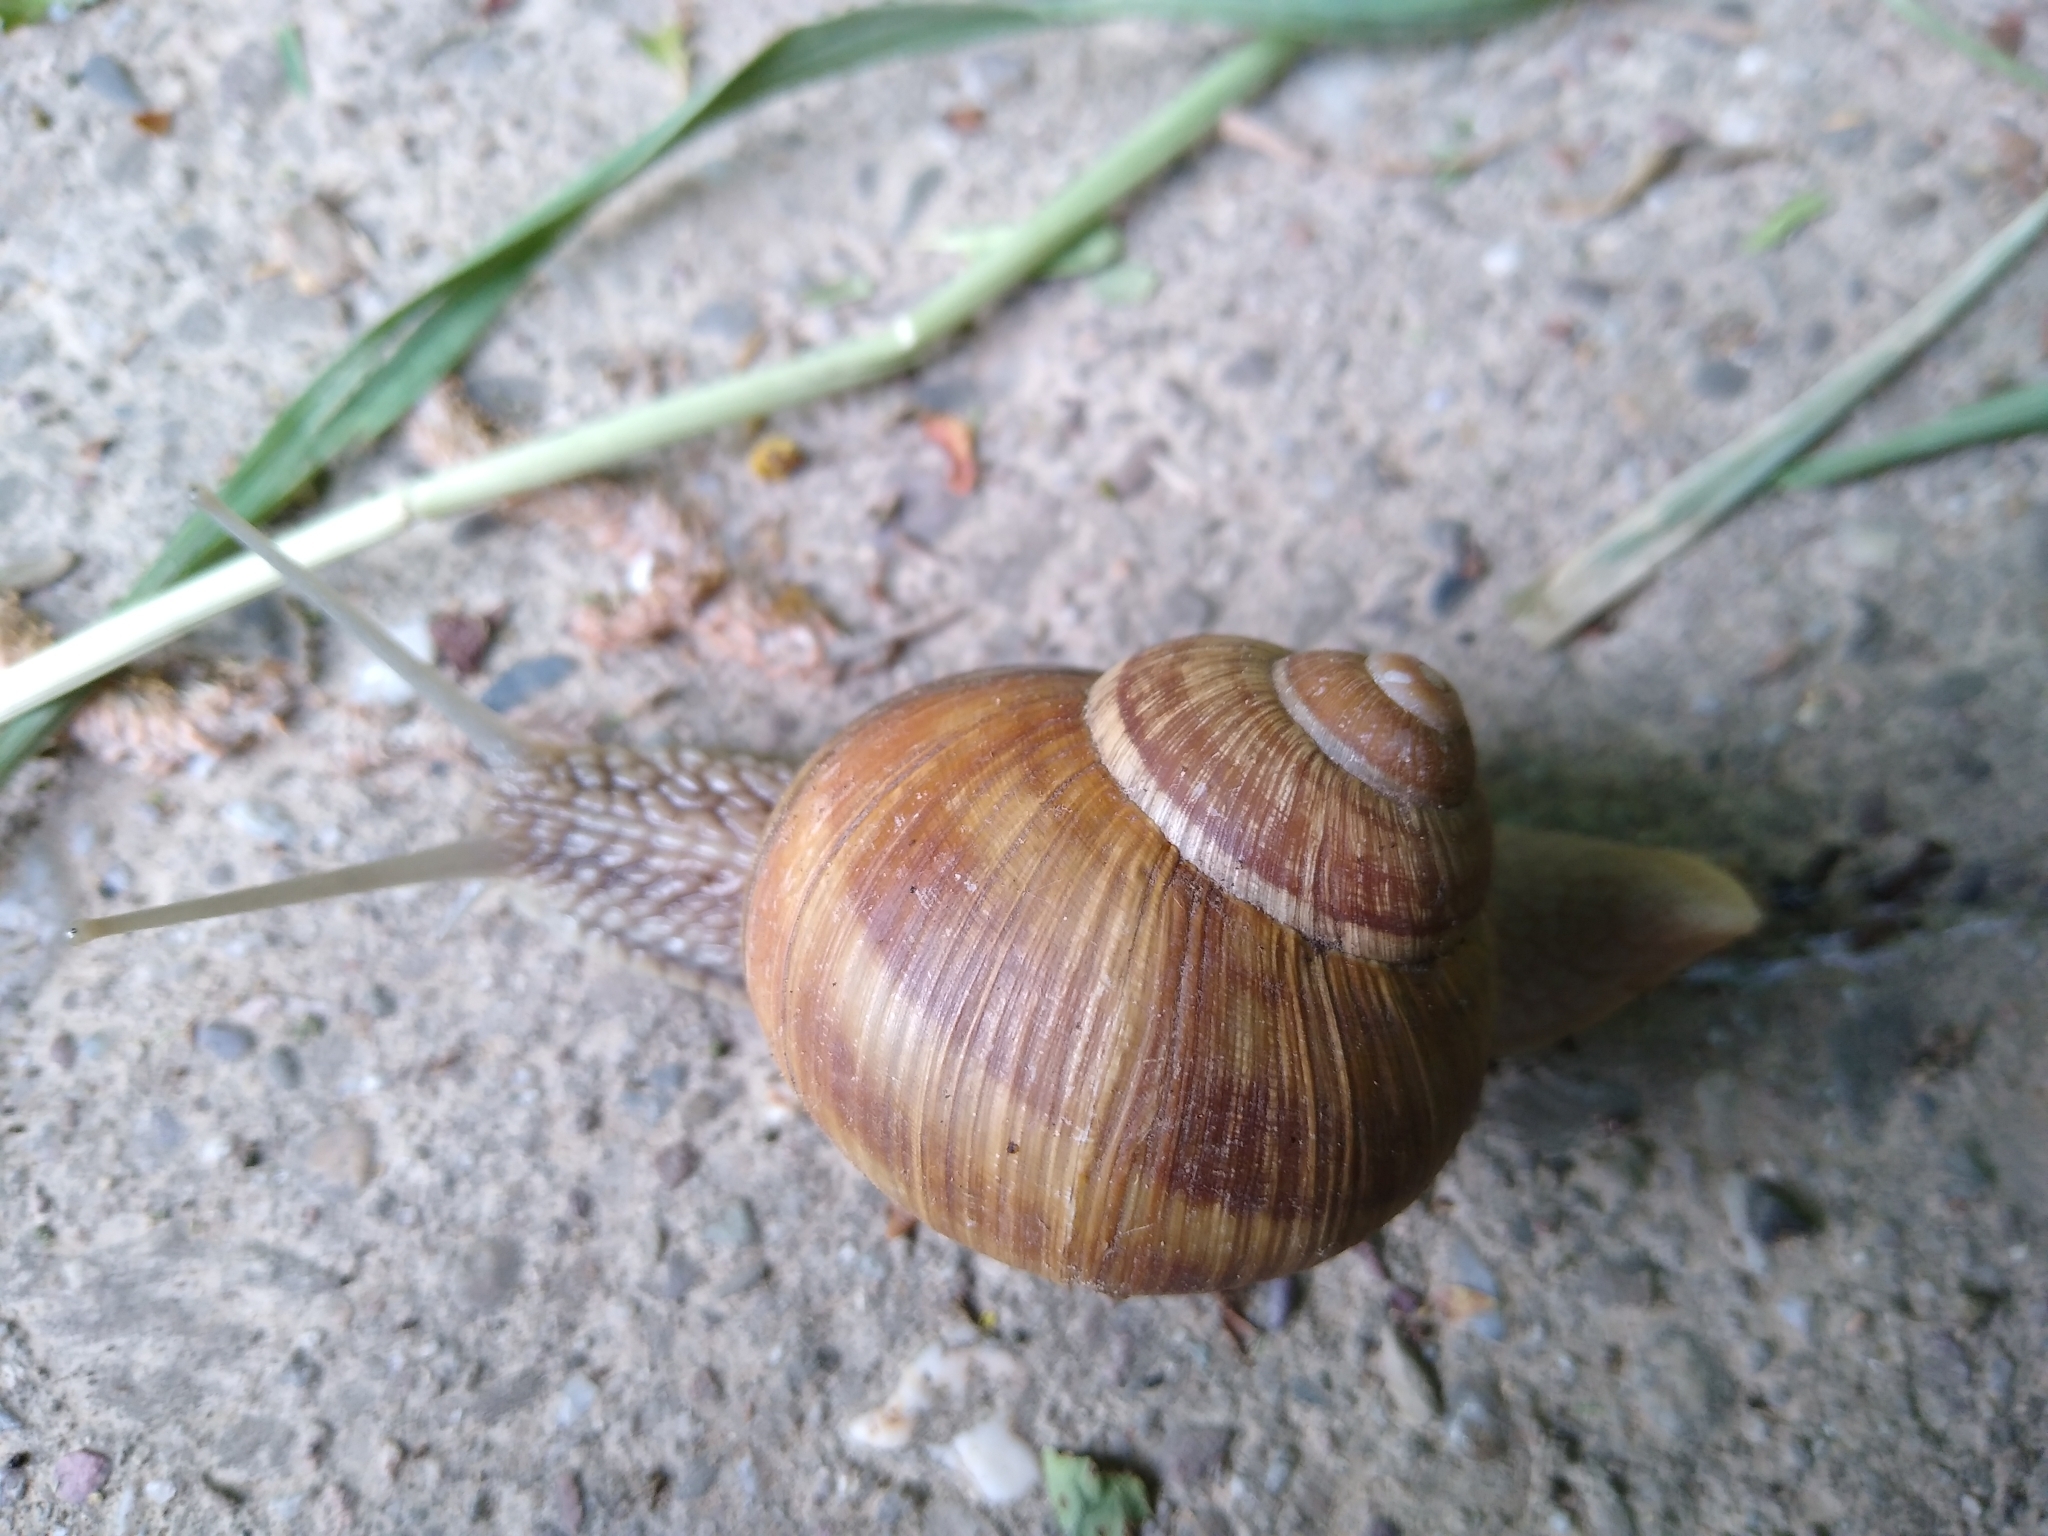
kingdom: Animalia
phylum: Mollusca
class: Gastropoda
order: Stylommatophora
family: Helicidae
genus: Helix
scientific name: Helix pomatia
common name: Roman snail
